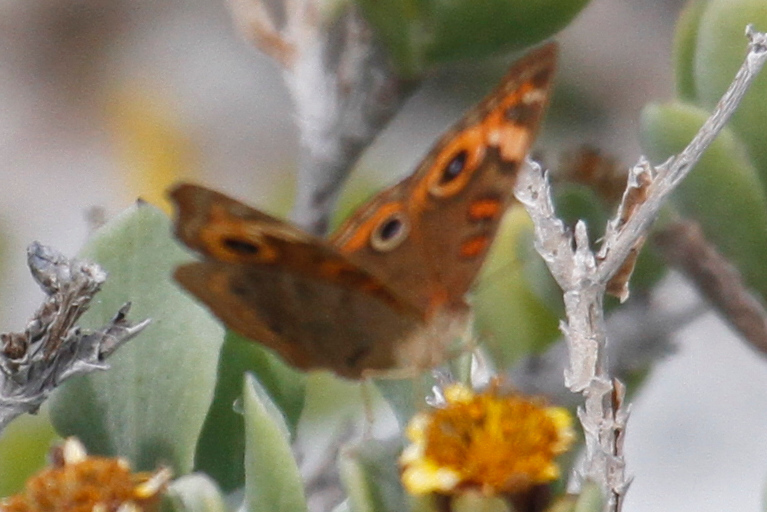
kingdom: Animalia
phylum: Arthropoda
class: Insecta
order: Lepidoptera
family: Nymphalidae
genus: Junonia
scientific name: Junonia lavinia
